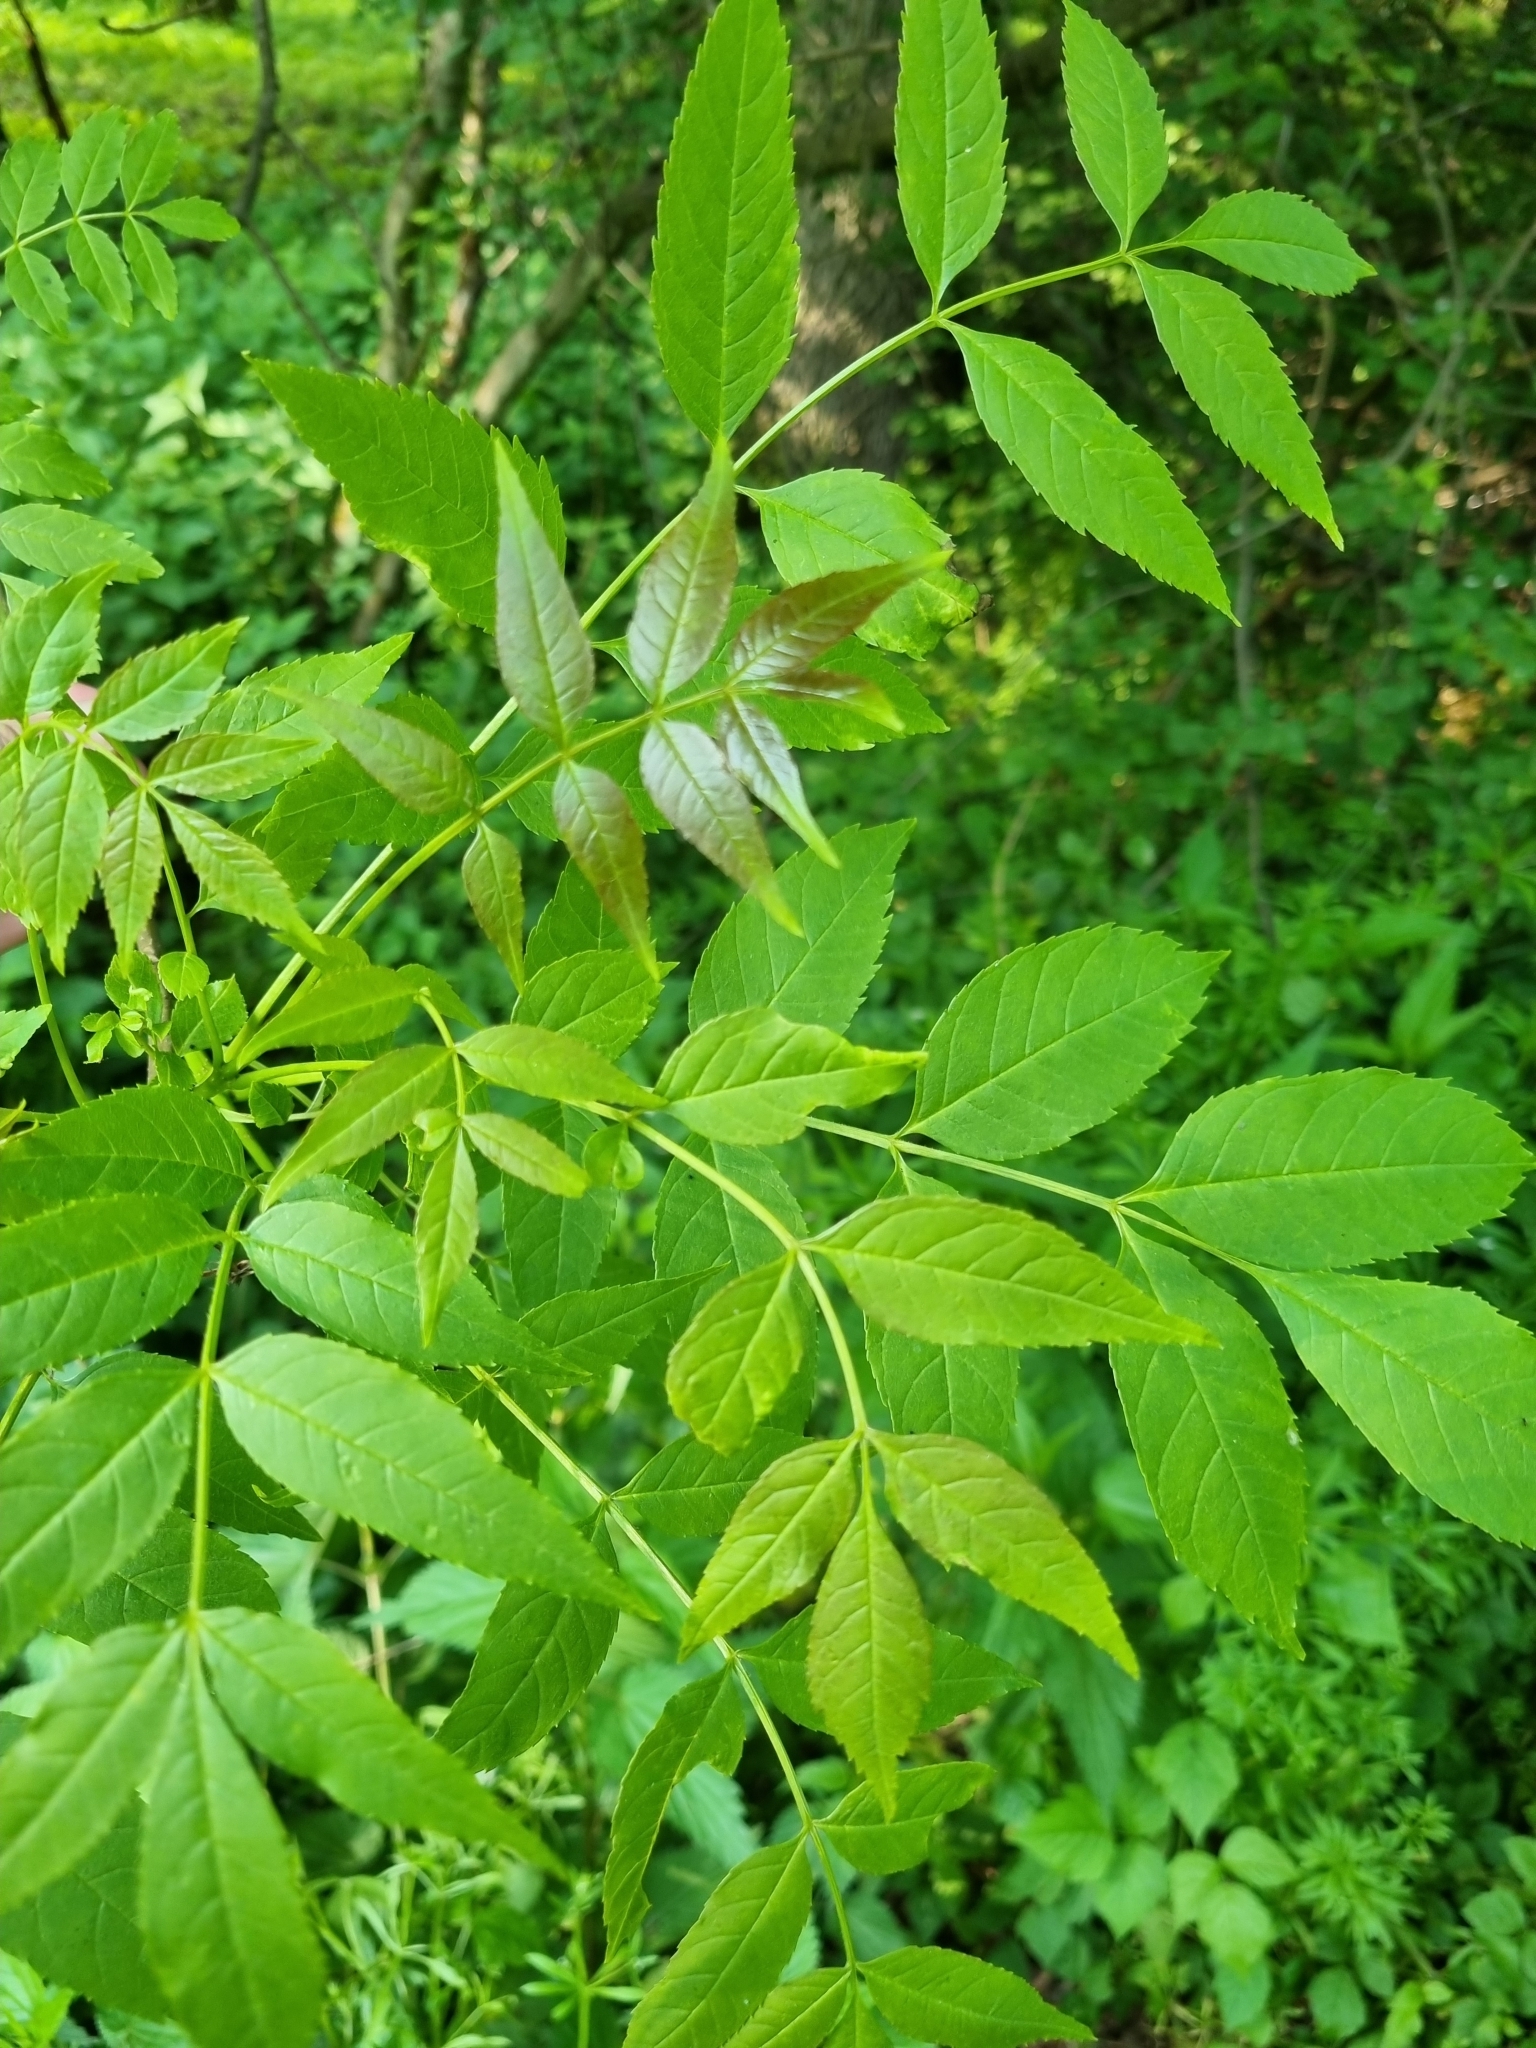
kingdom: Plantae
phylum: Tracheophyta
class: Magnoliopsida
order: Lamiales
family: Oleaceae
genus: Fraxinus
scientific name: Fraxinus excelsior
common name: European ash
